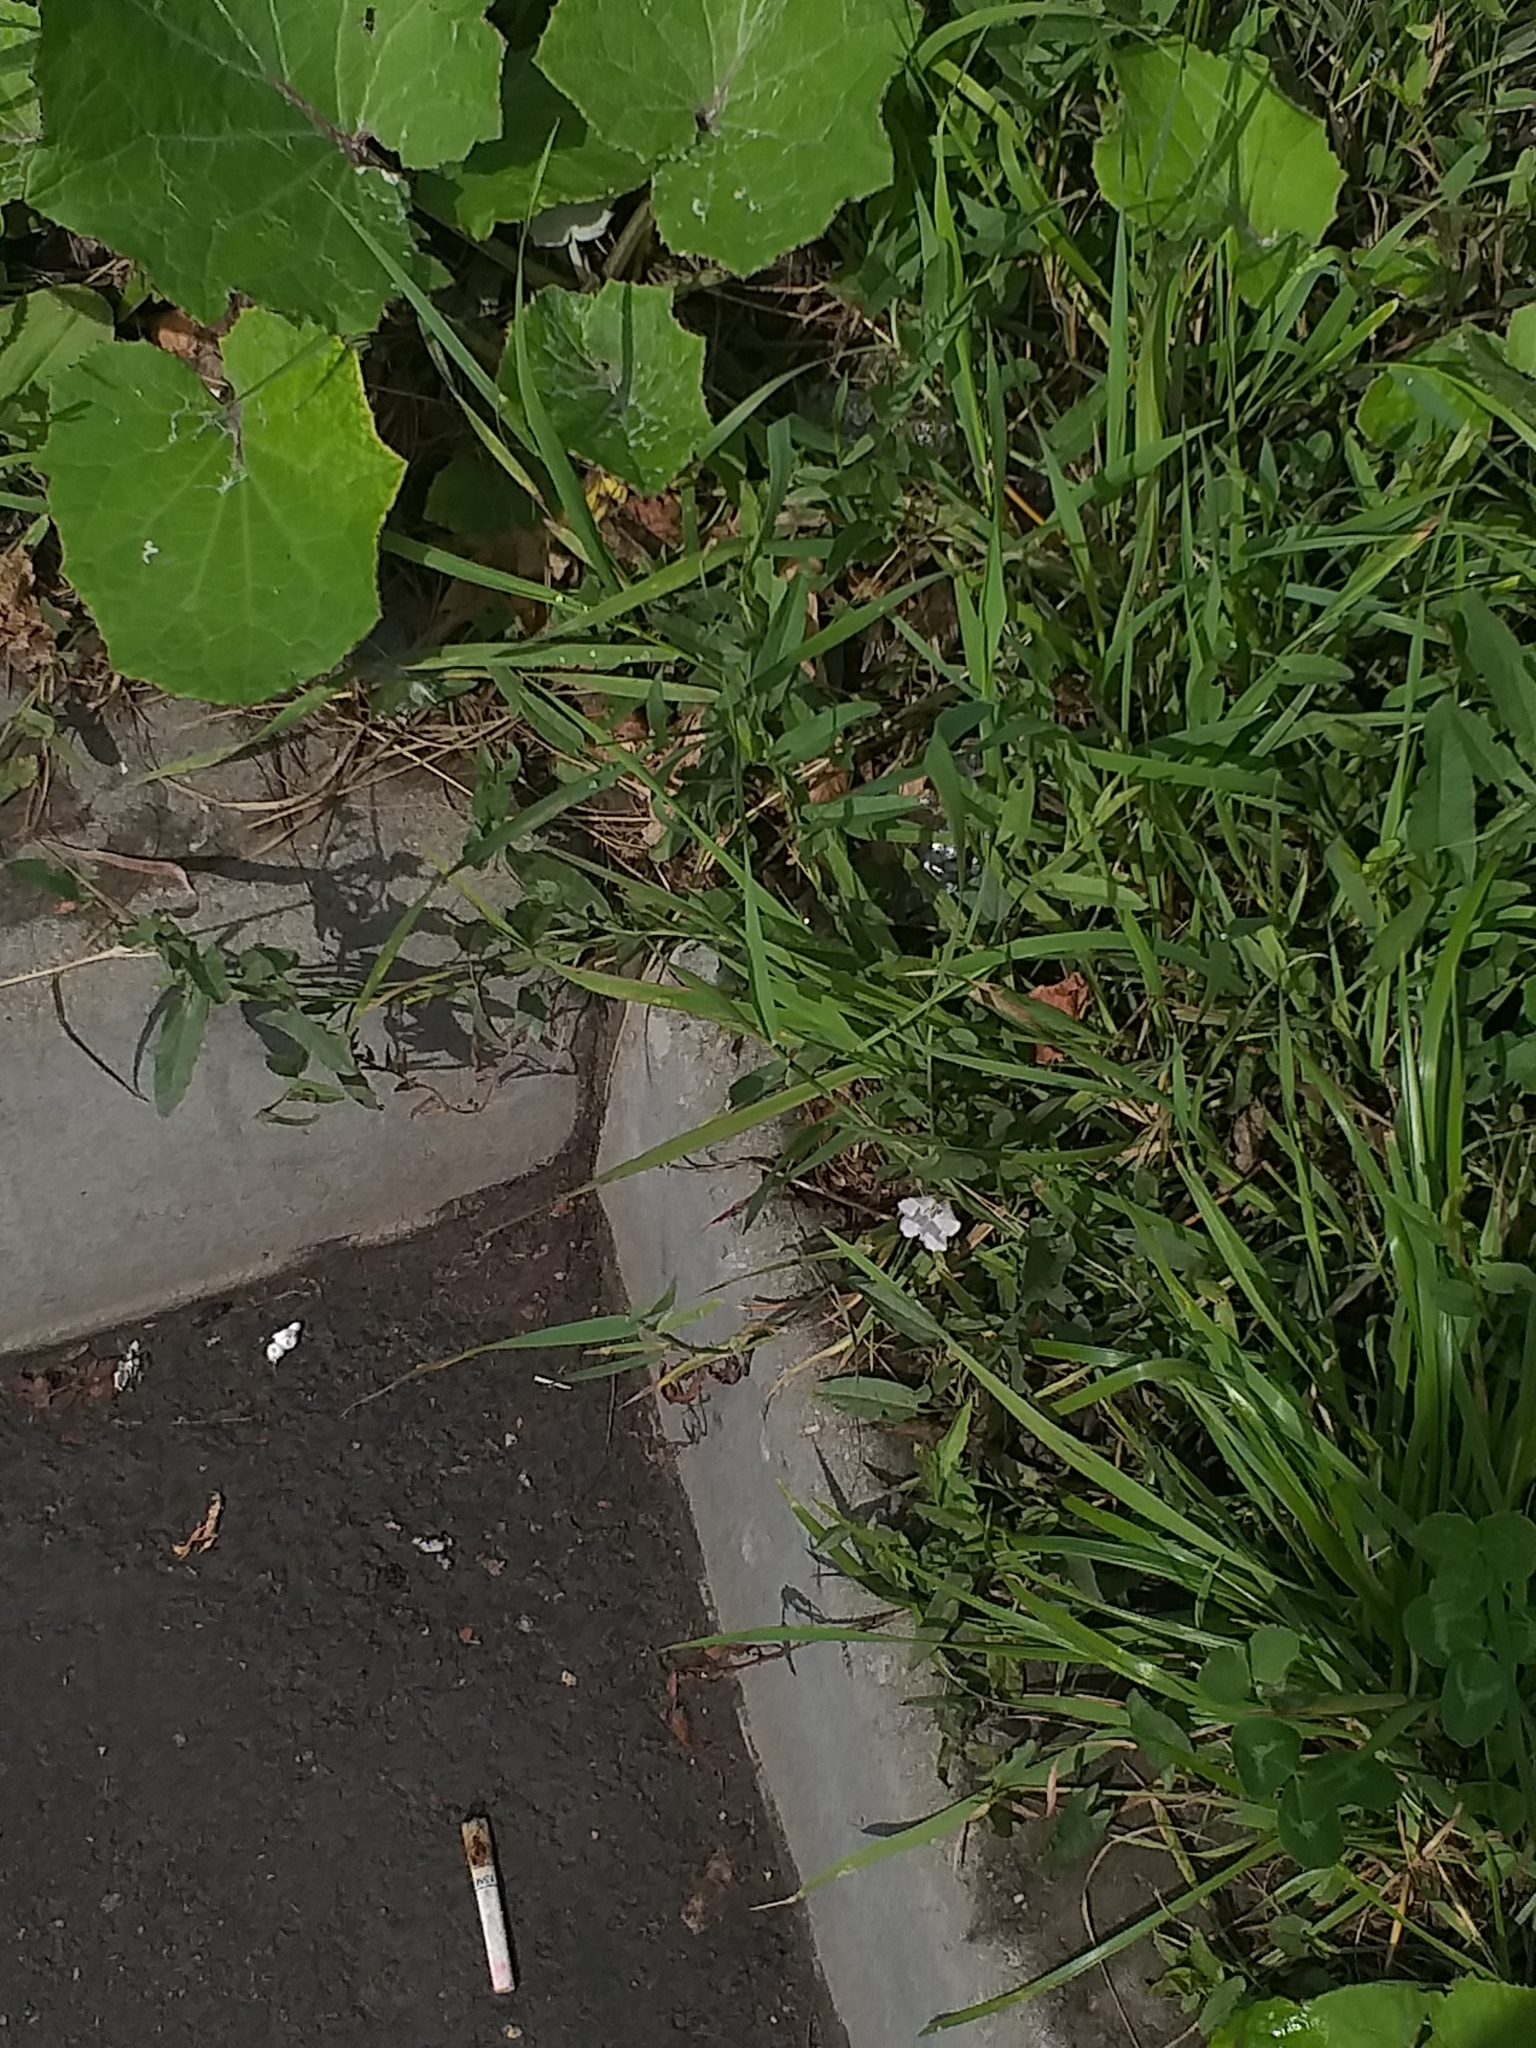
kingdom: Plantae
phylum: Tracheophyta
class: Magnoliopsida
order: Solanales
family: Convolvulaceae
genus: Convolvulus
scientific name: Convolvulus arvensis
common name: Field bindweed
